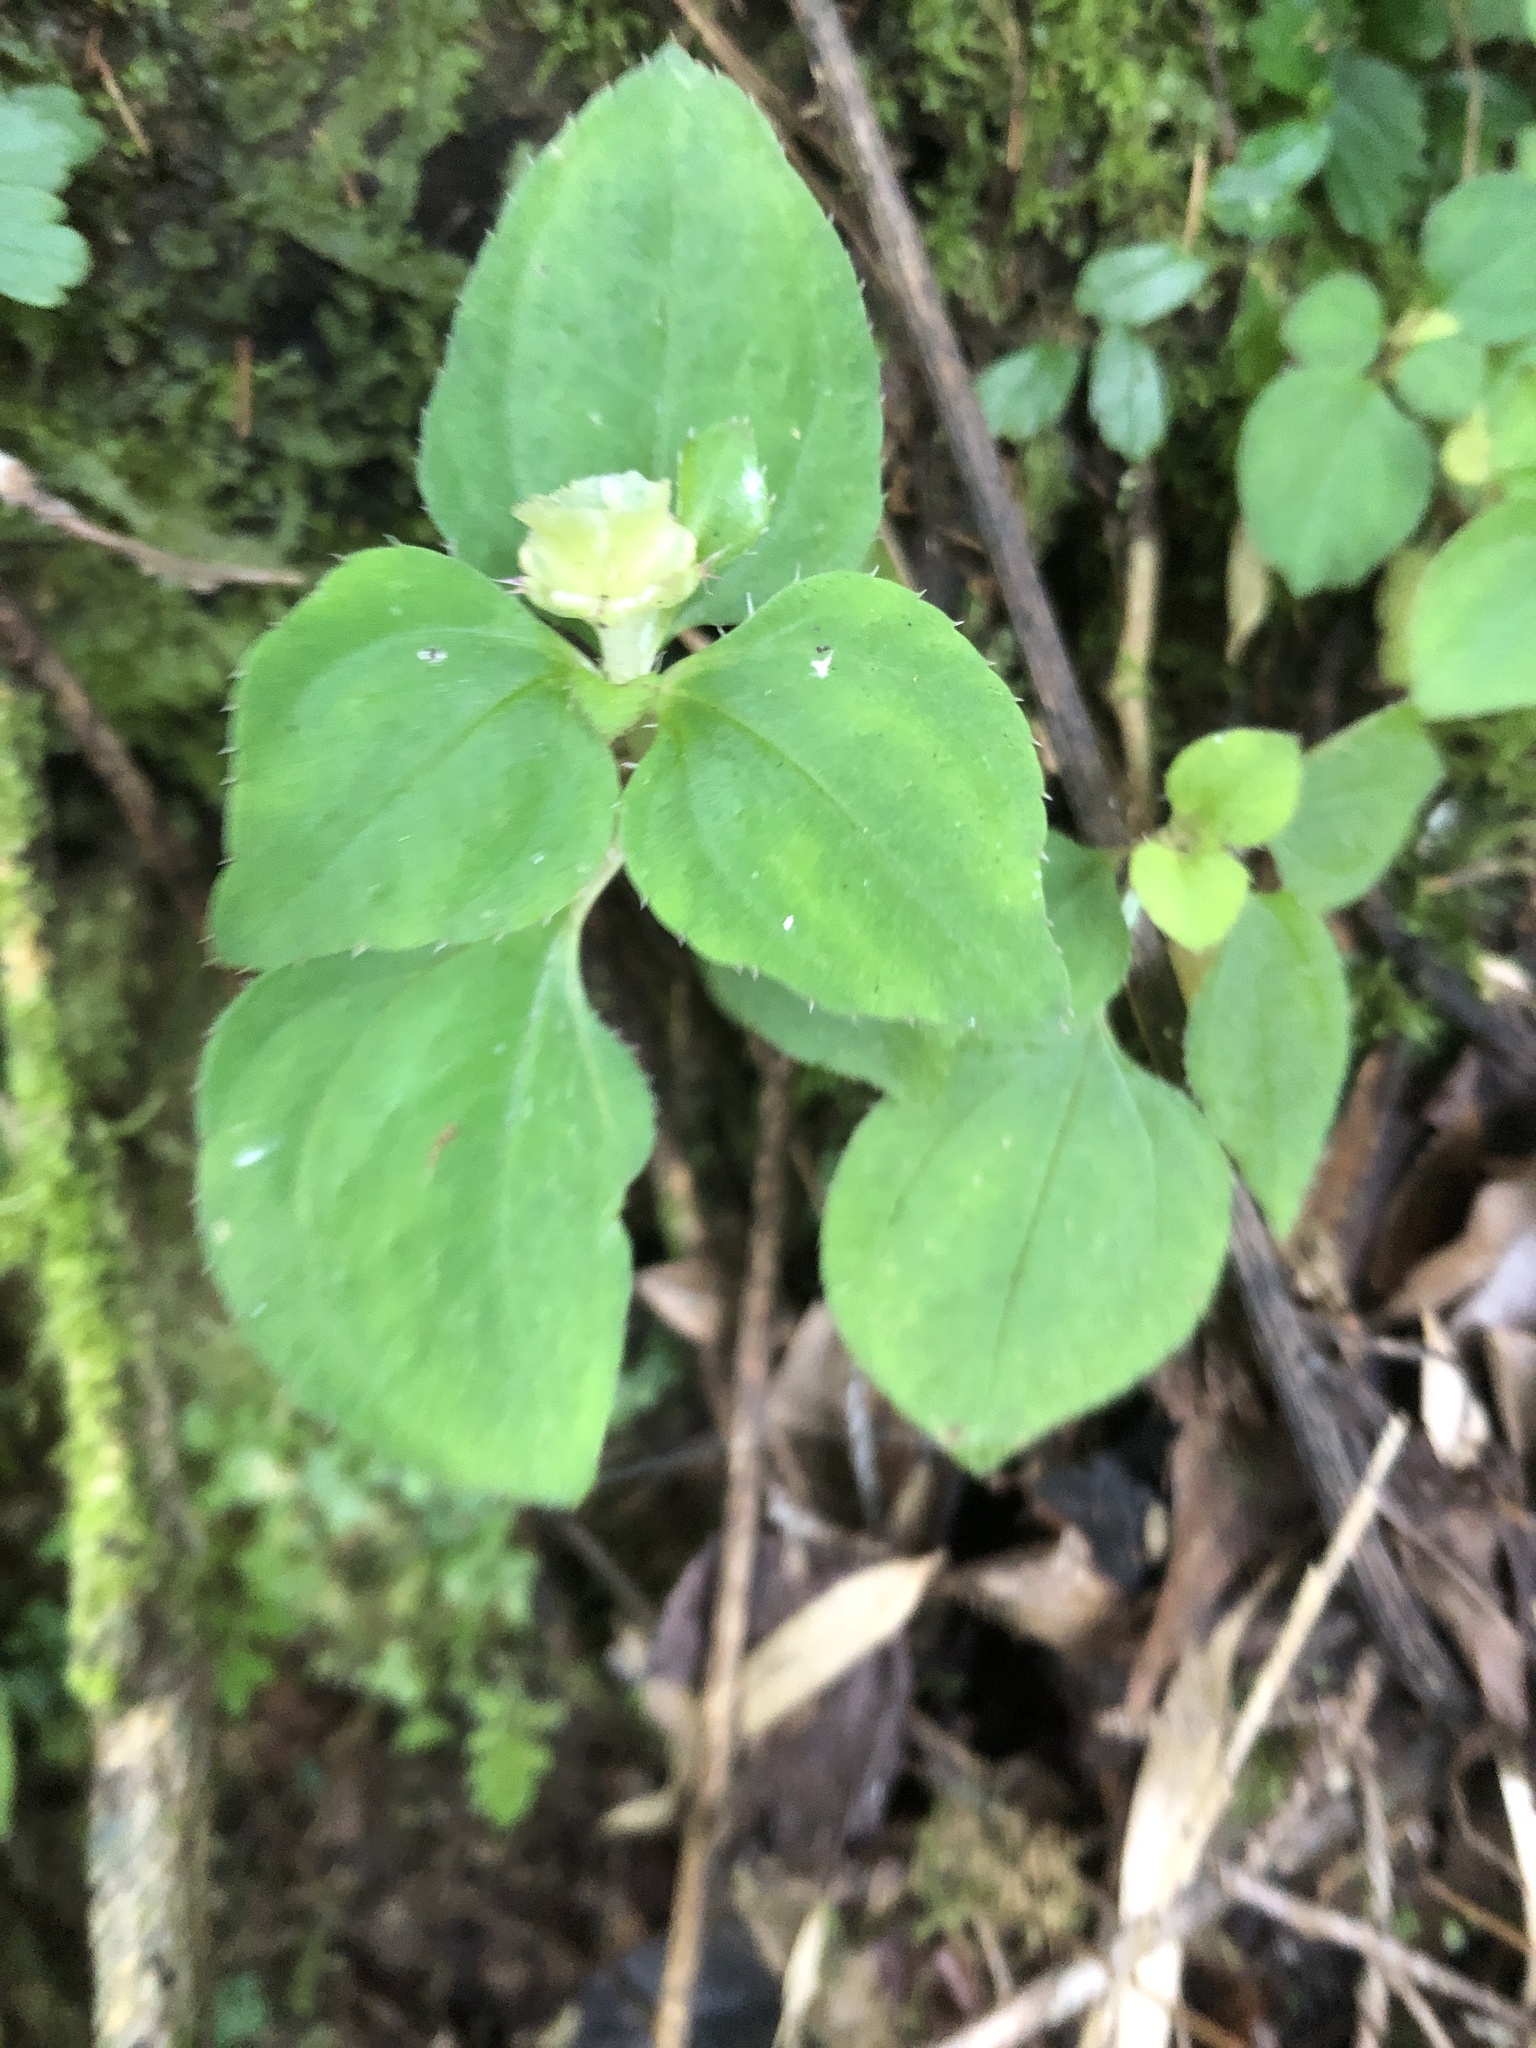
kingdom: Plantae
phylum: Tracheophyta
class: Magnoliopsida
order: Myrtales
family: Melastomataceae
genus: Sarcopyramis
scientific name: Sarcopyramis napalensis
